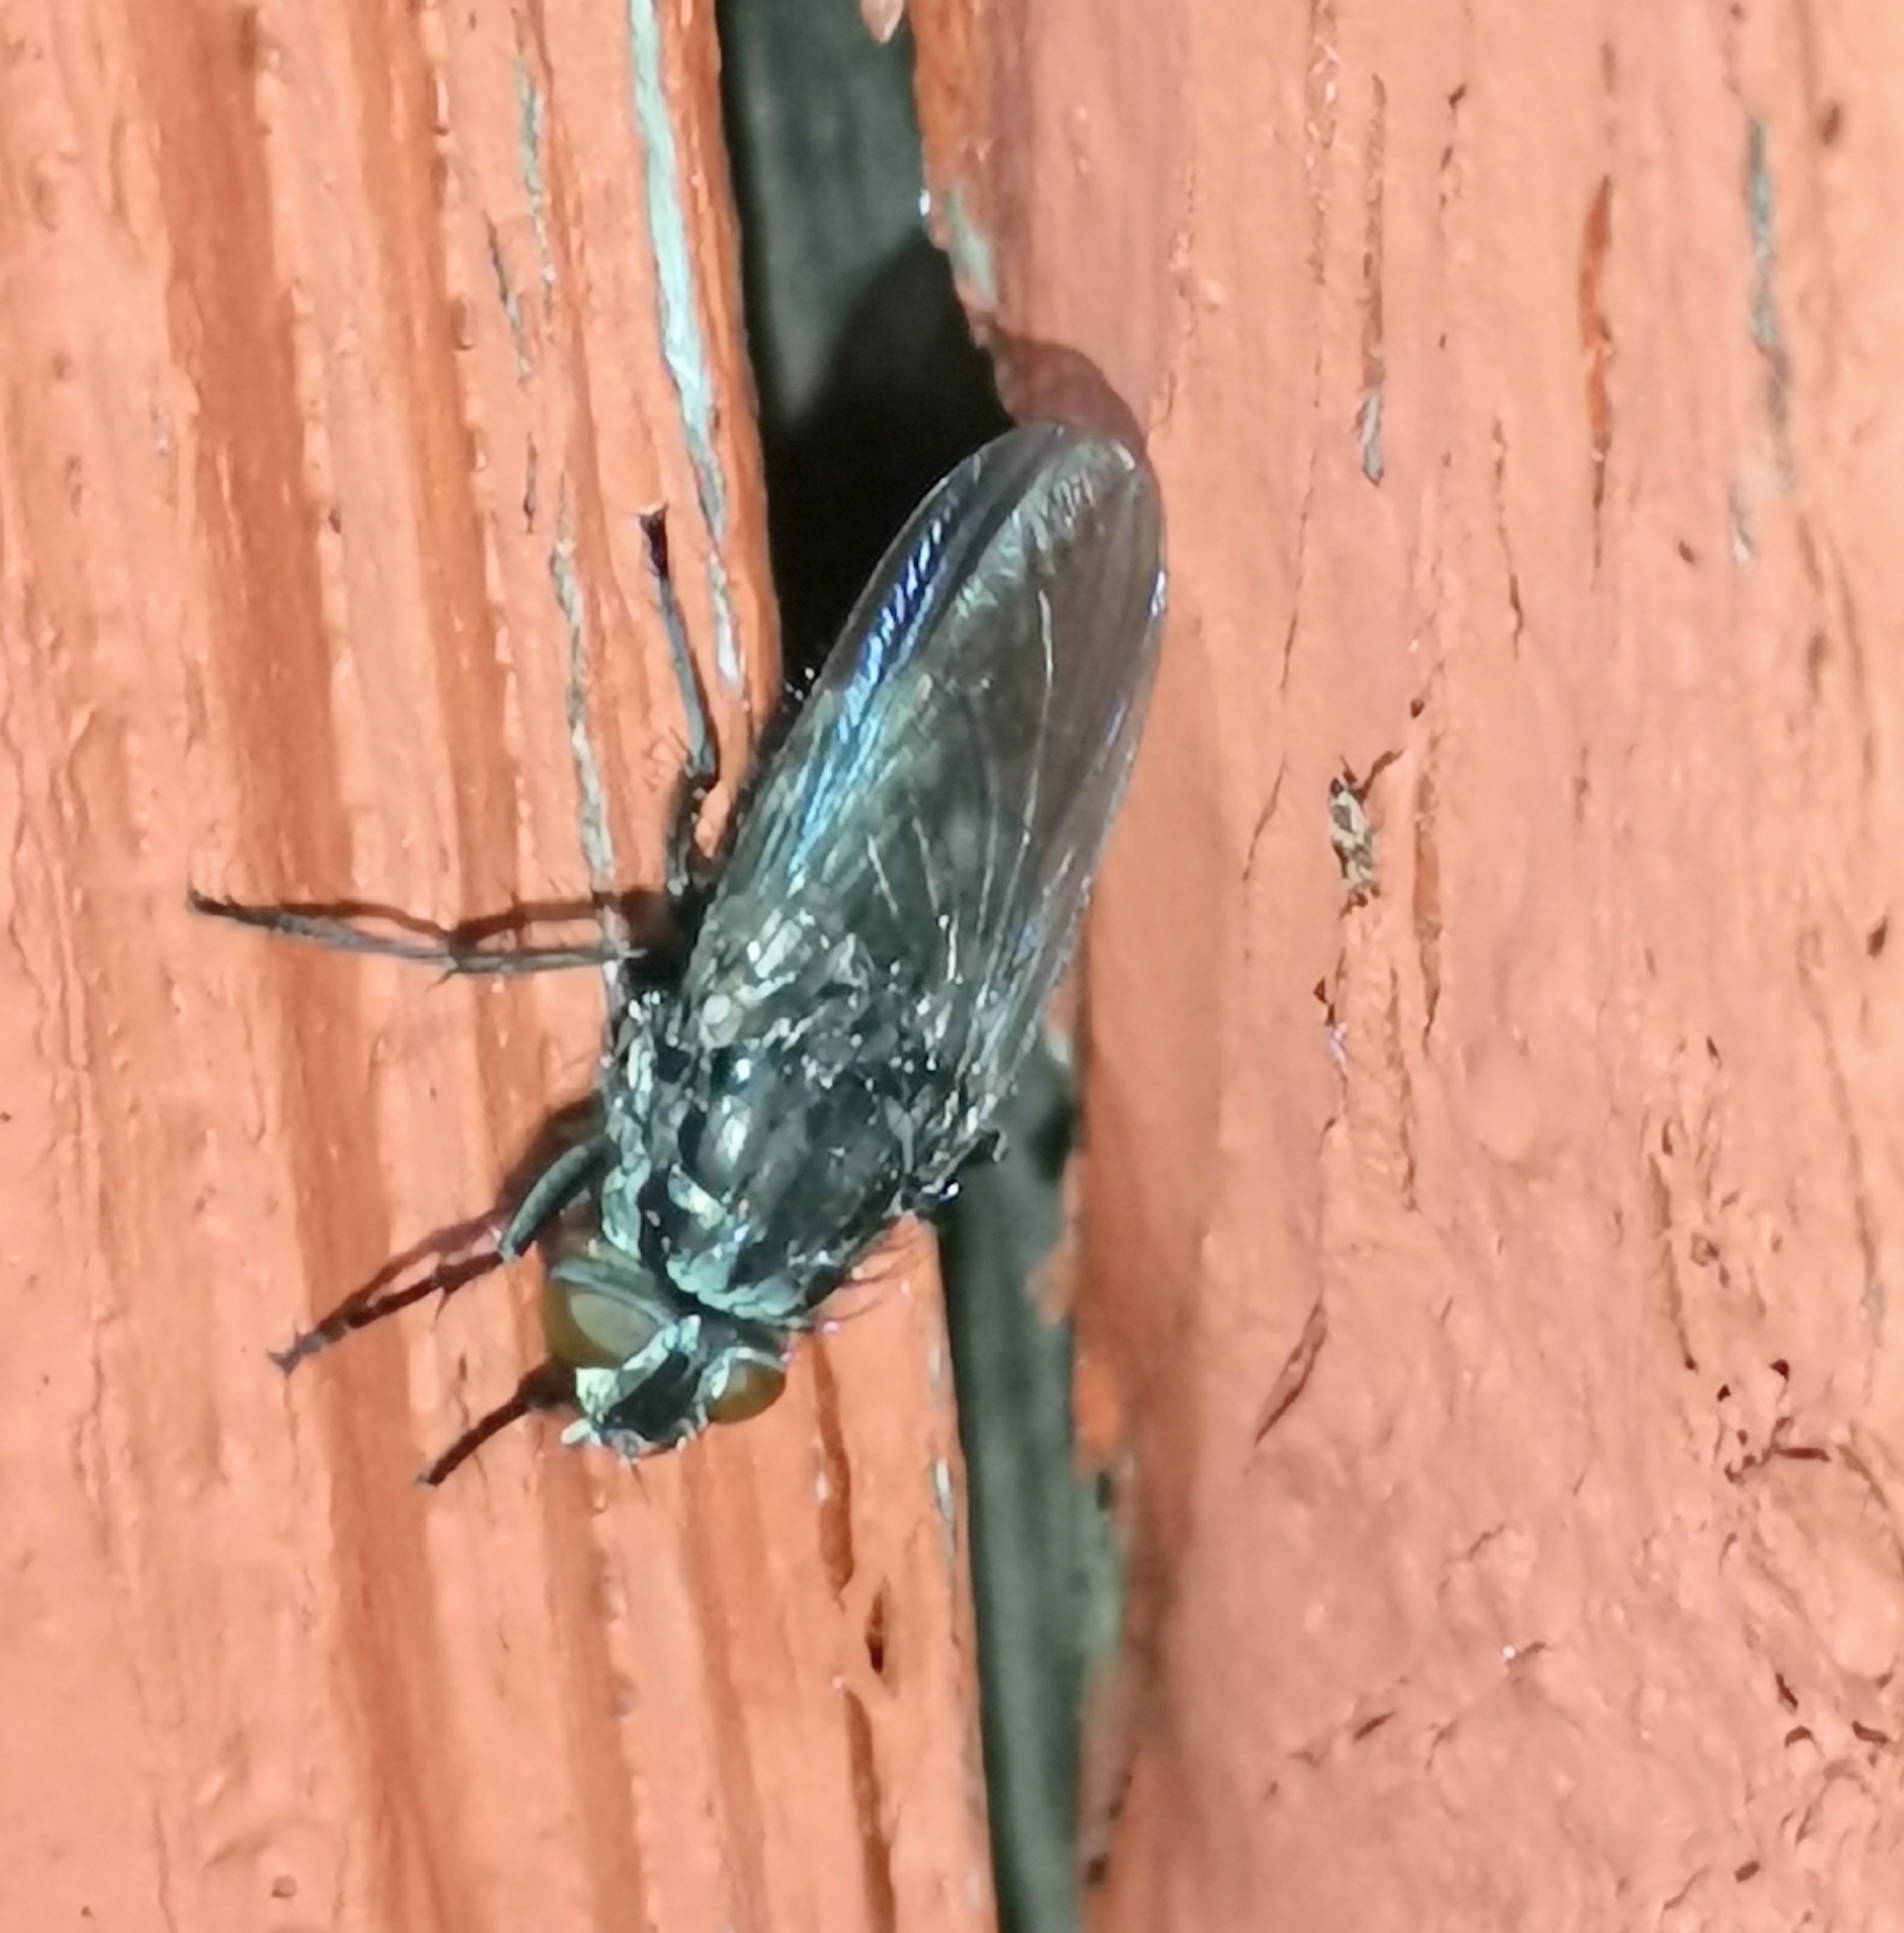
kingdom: Animalia
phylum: Arthropoda
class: Insecta
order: Diptera
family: Polleniidae
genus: Pollenia
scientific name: Pollenia vagabunda
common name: Vagabund cluster fly
